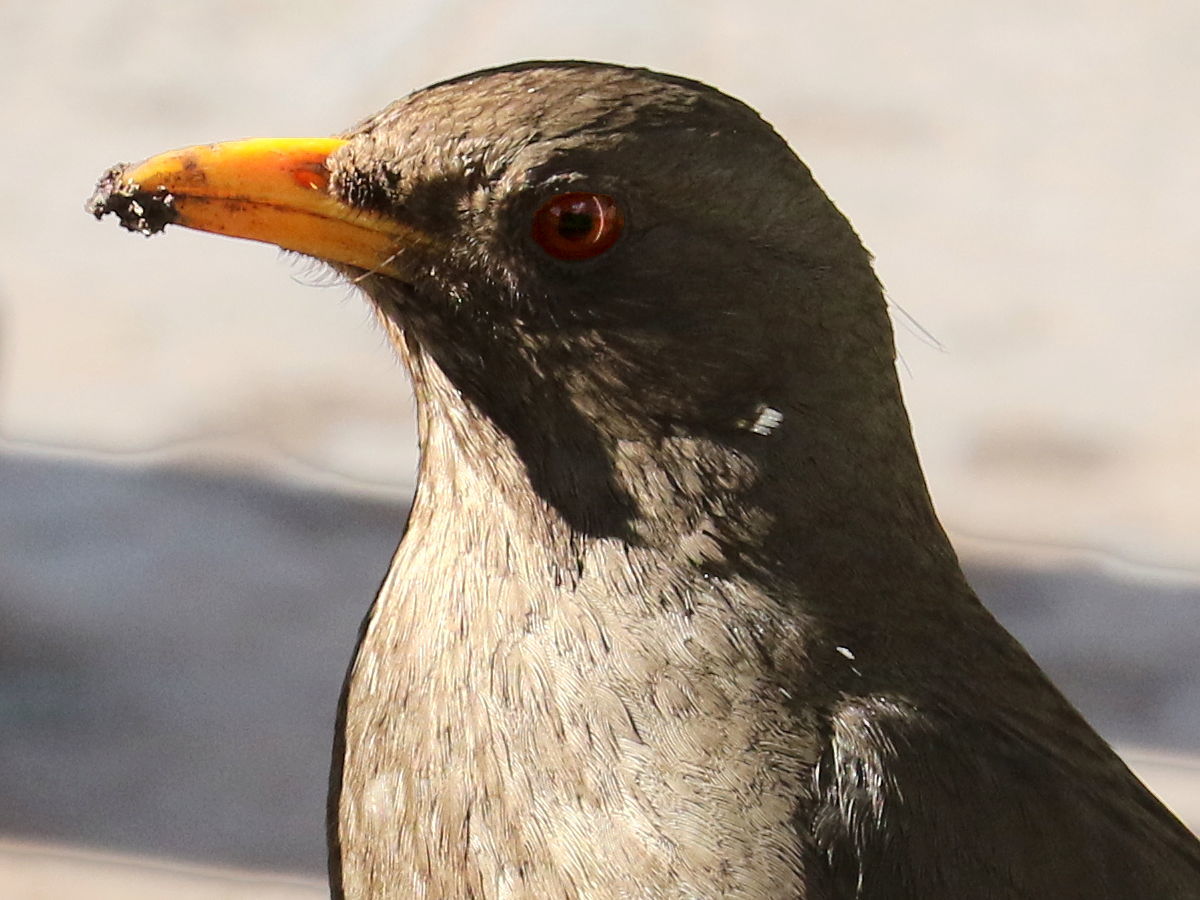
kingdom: Animalia
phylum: Chordata
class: Aves
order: Passeriformes
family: Turdidae
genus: Turdus
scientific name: Turdus chiguanco
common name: Chiguanco thrush
